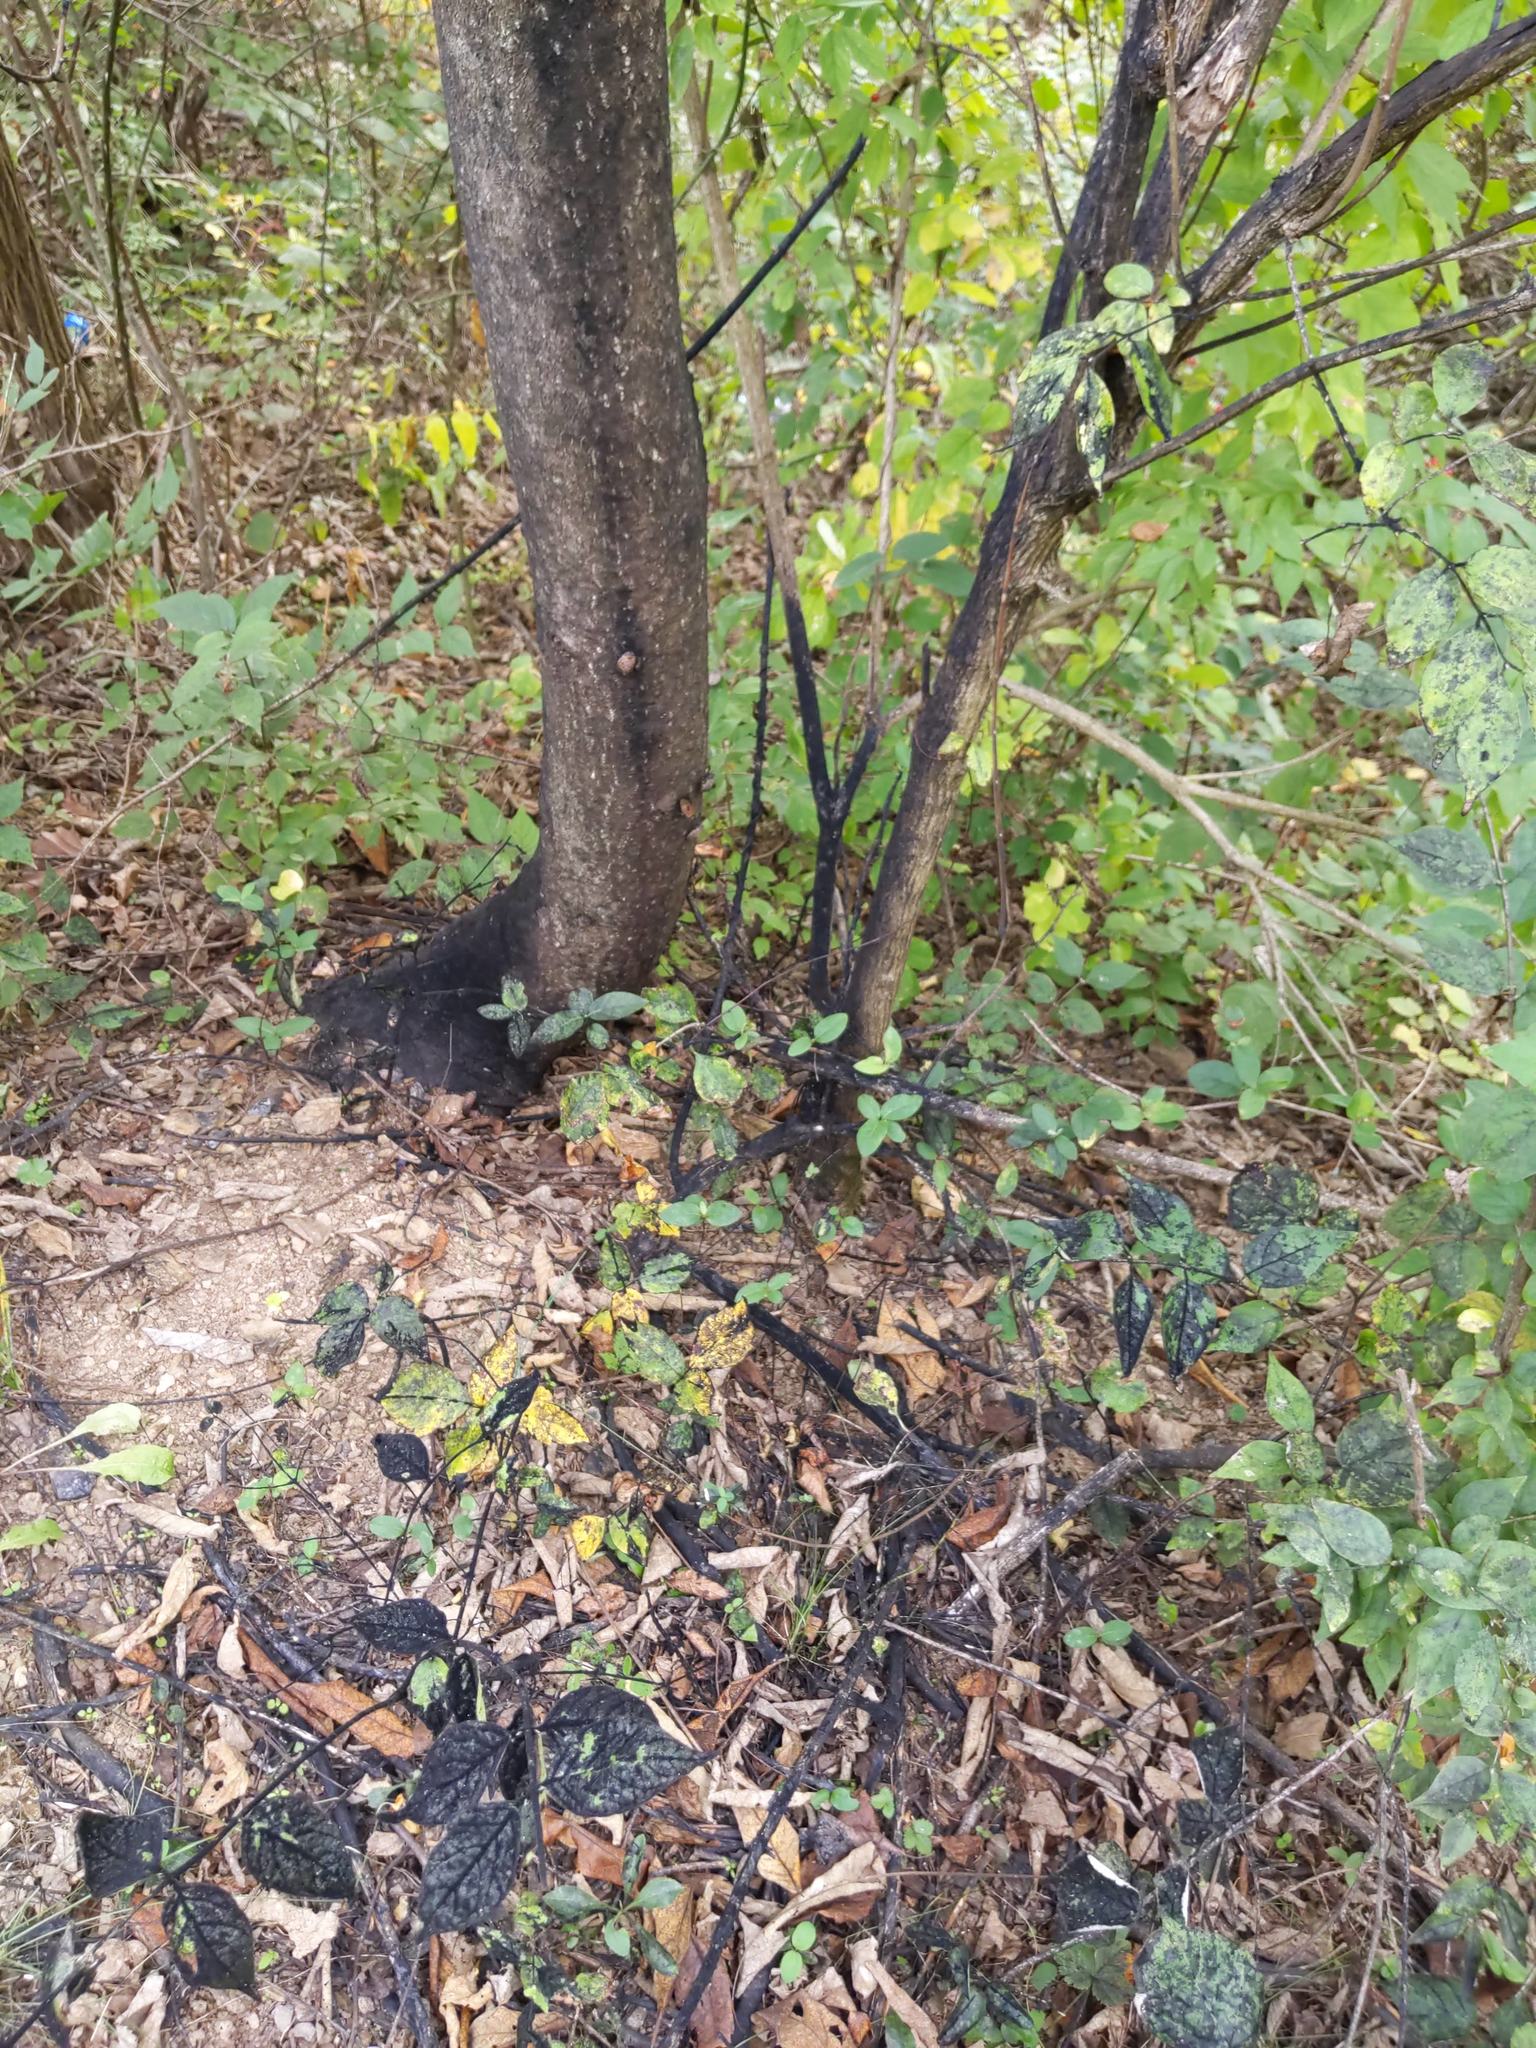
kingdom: Animalia
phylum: Arthropoda
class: Insecta
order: Hemiptera
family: Fulgoridae
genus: Lycorma
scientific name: Lycorma delicatula
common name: Spotted lanternfly
